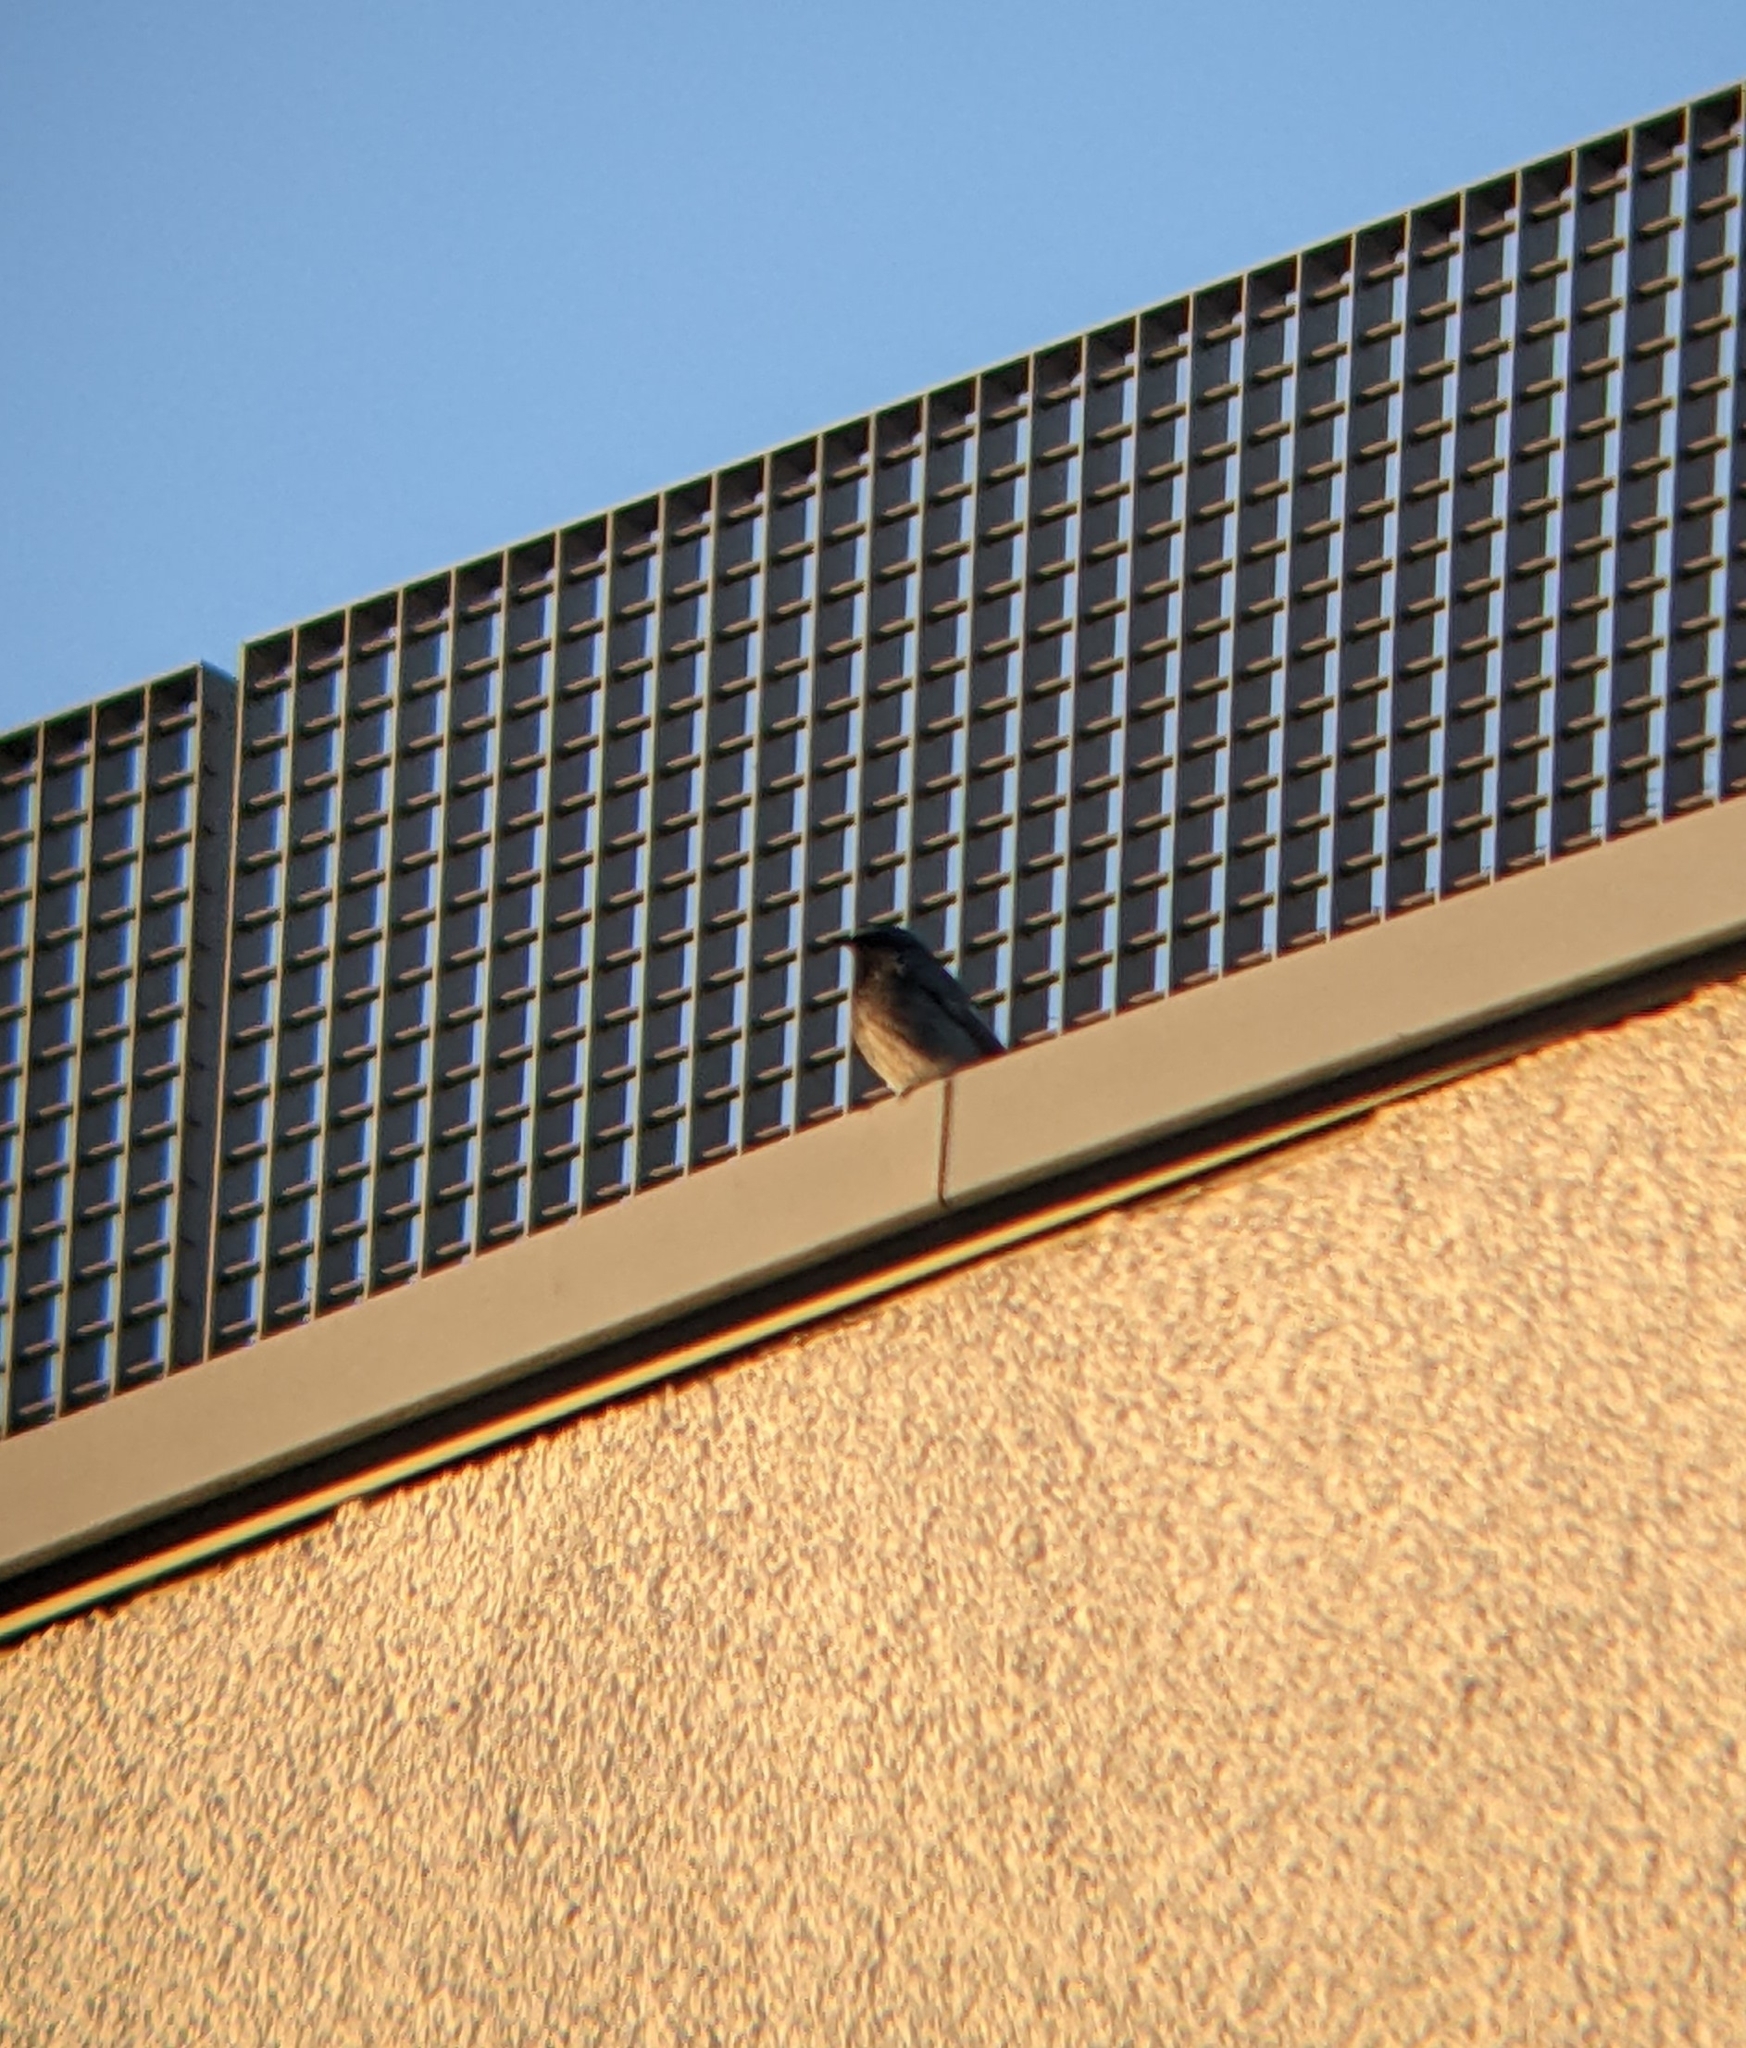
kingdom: Animalia
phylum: Chordata
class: Aves
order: Passeriformes
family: Muscicapidae
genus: Phoenicurus
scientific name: Phoenicurus ochruros
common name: Black redstart
